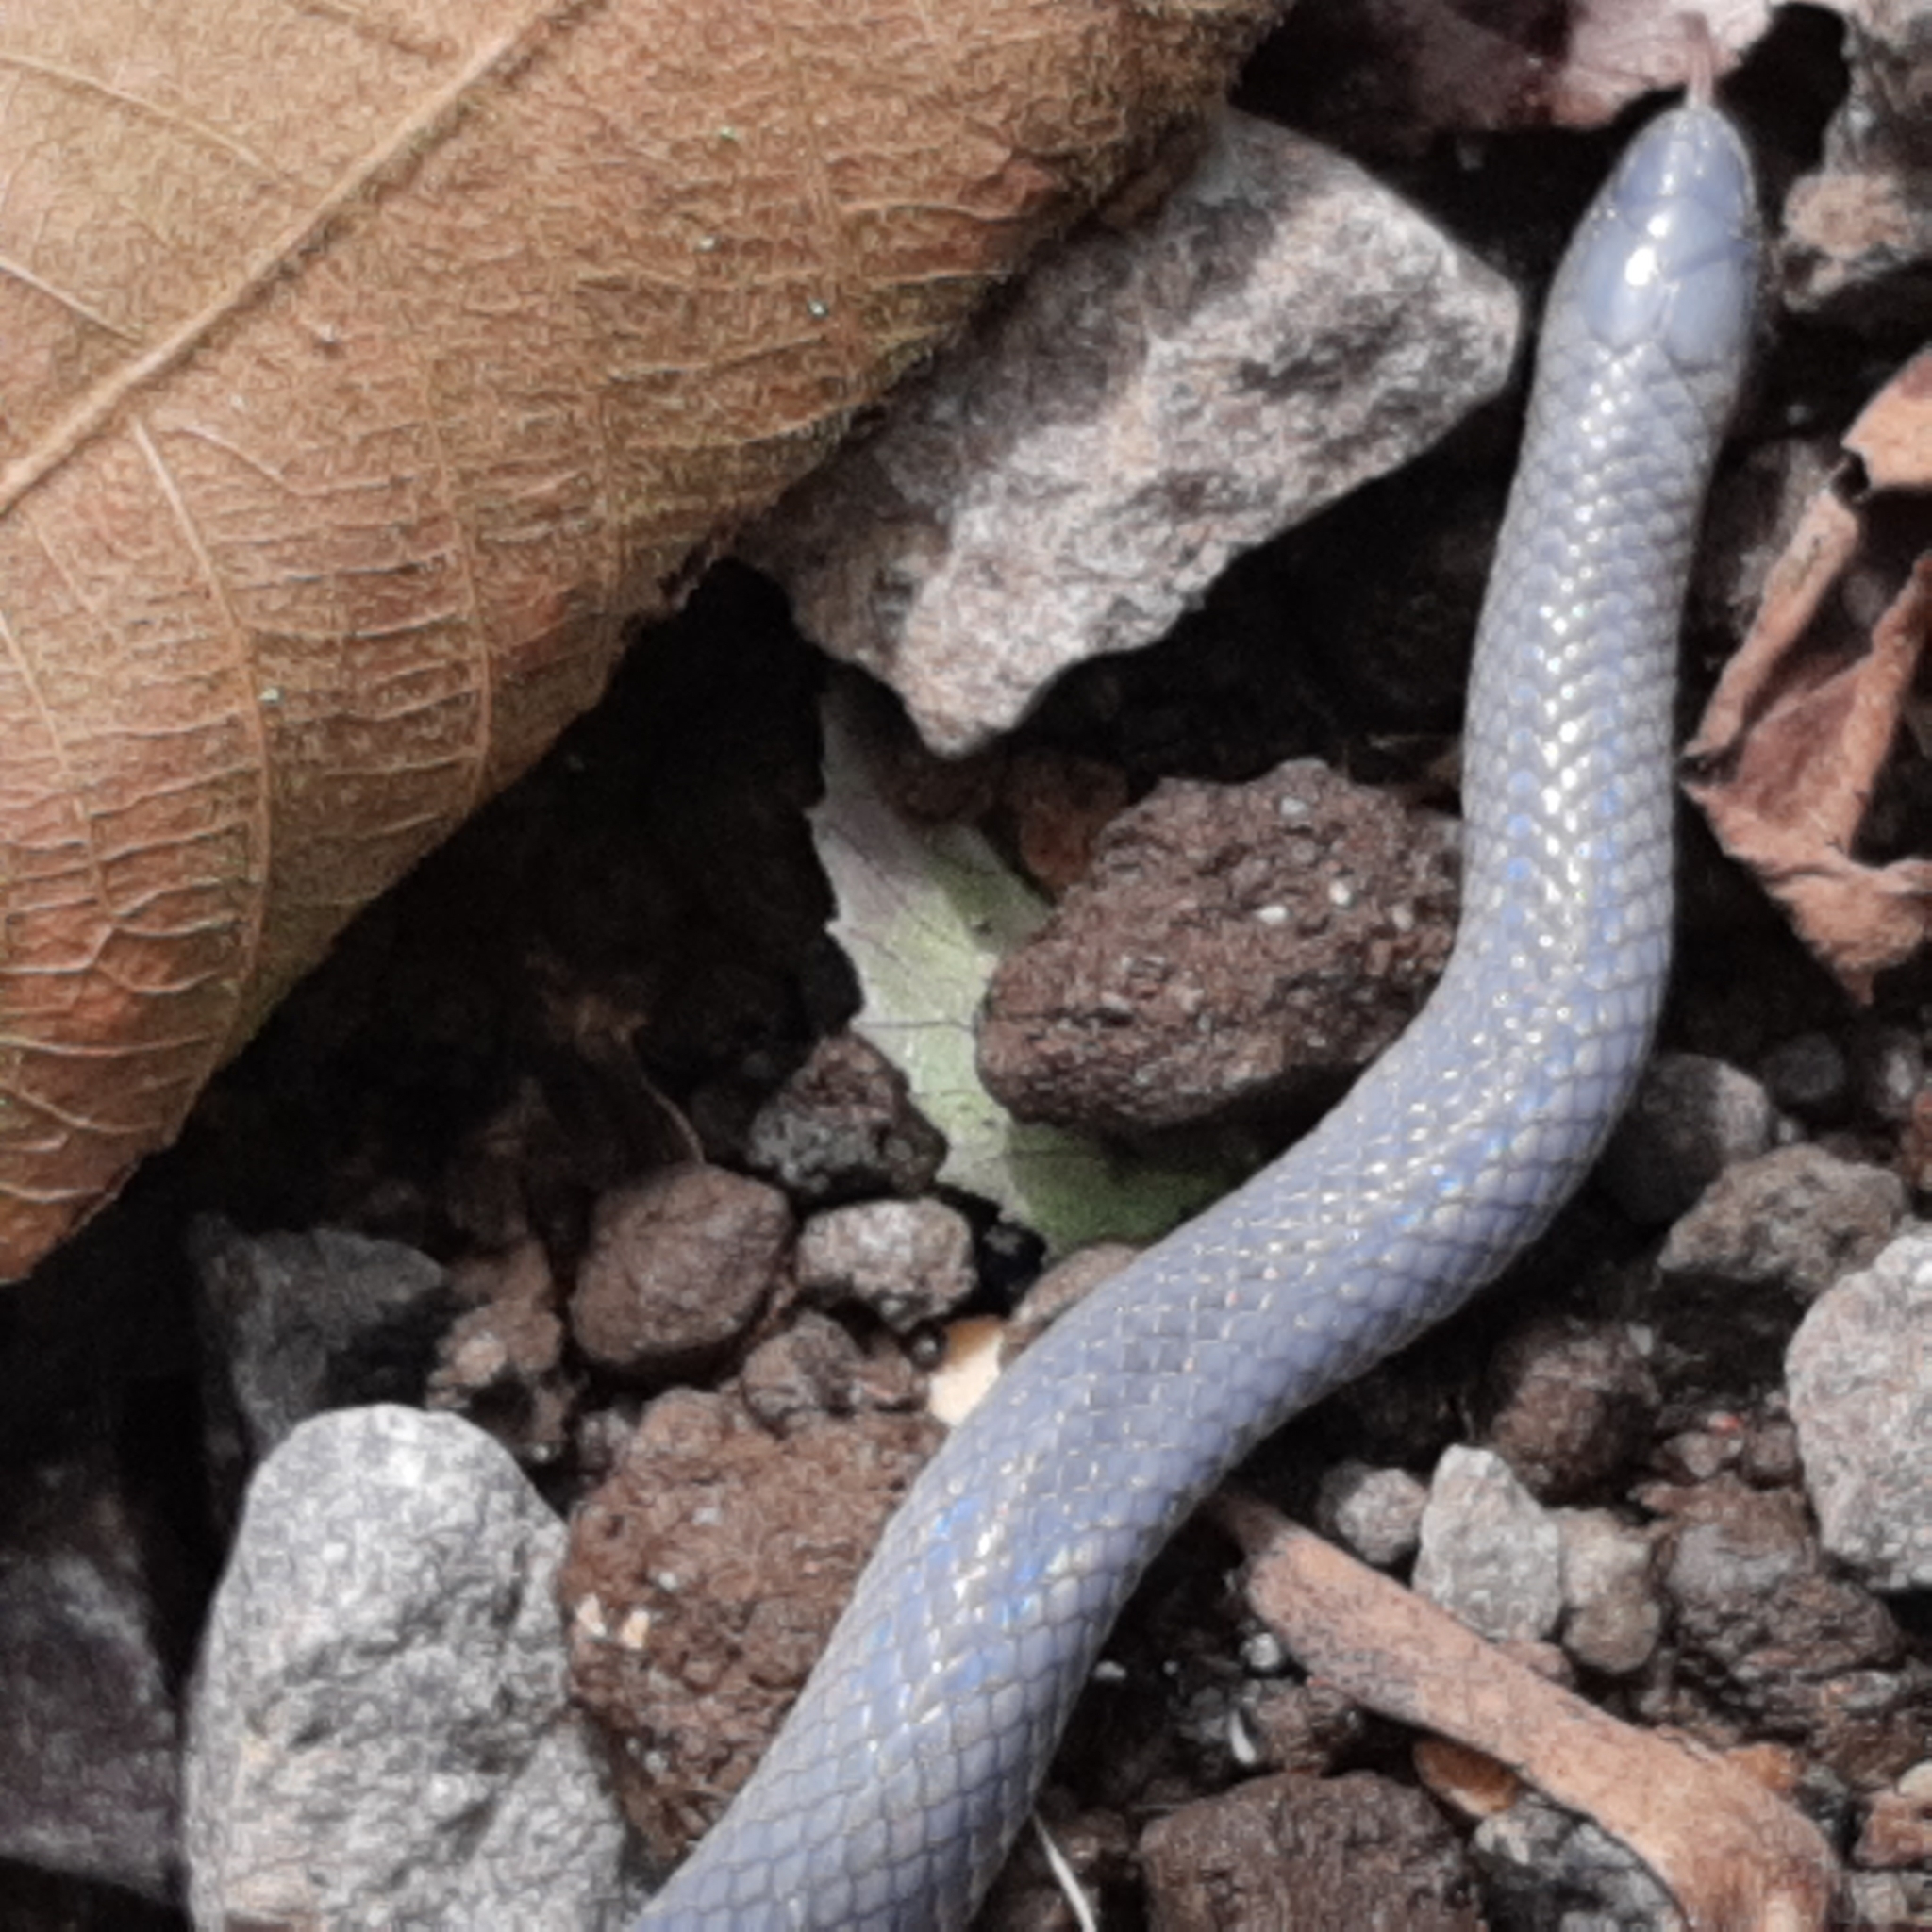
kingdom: Animalia
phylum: Chordata
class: Squamata
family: Colubridae
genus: Geophis
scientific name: Geophis hoffmanni
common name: Hoffmann's earth snake
